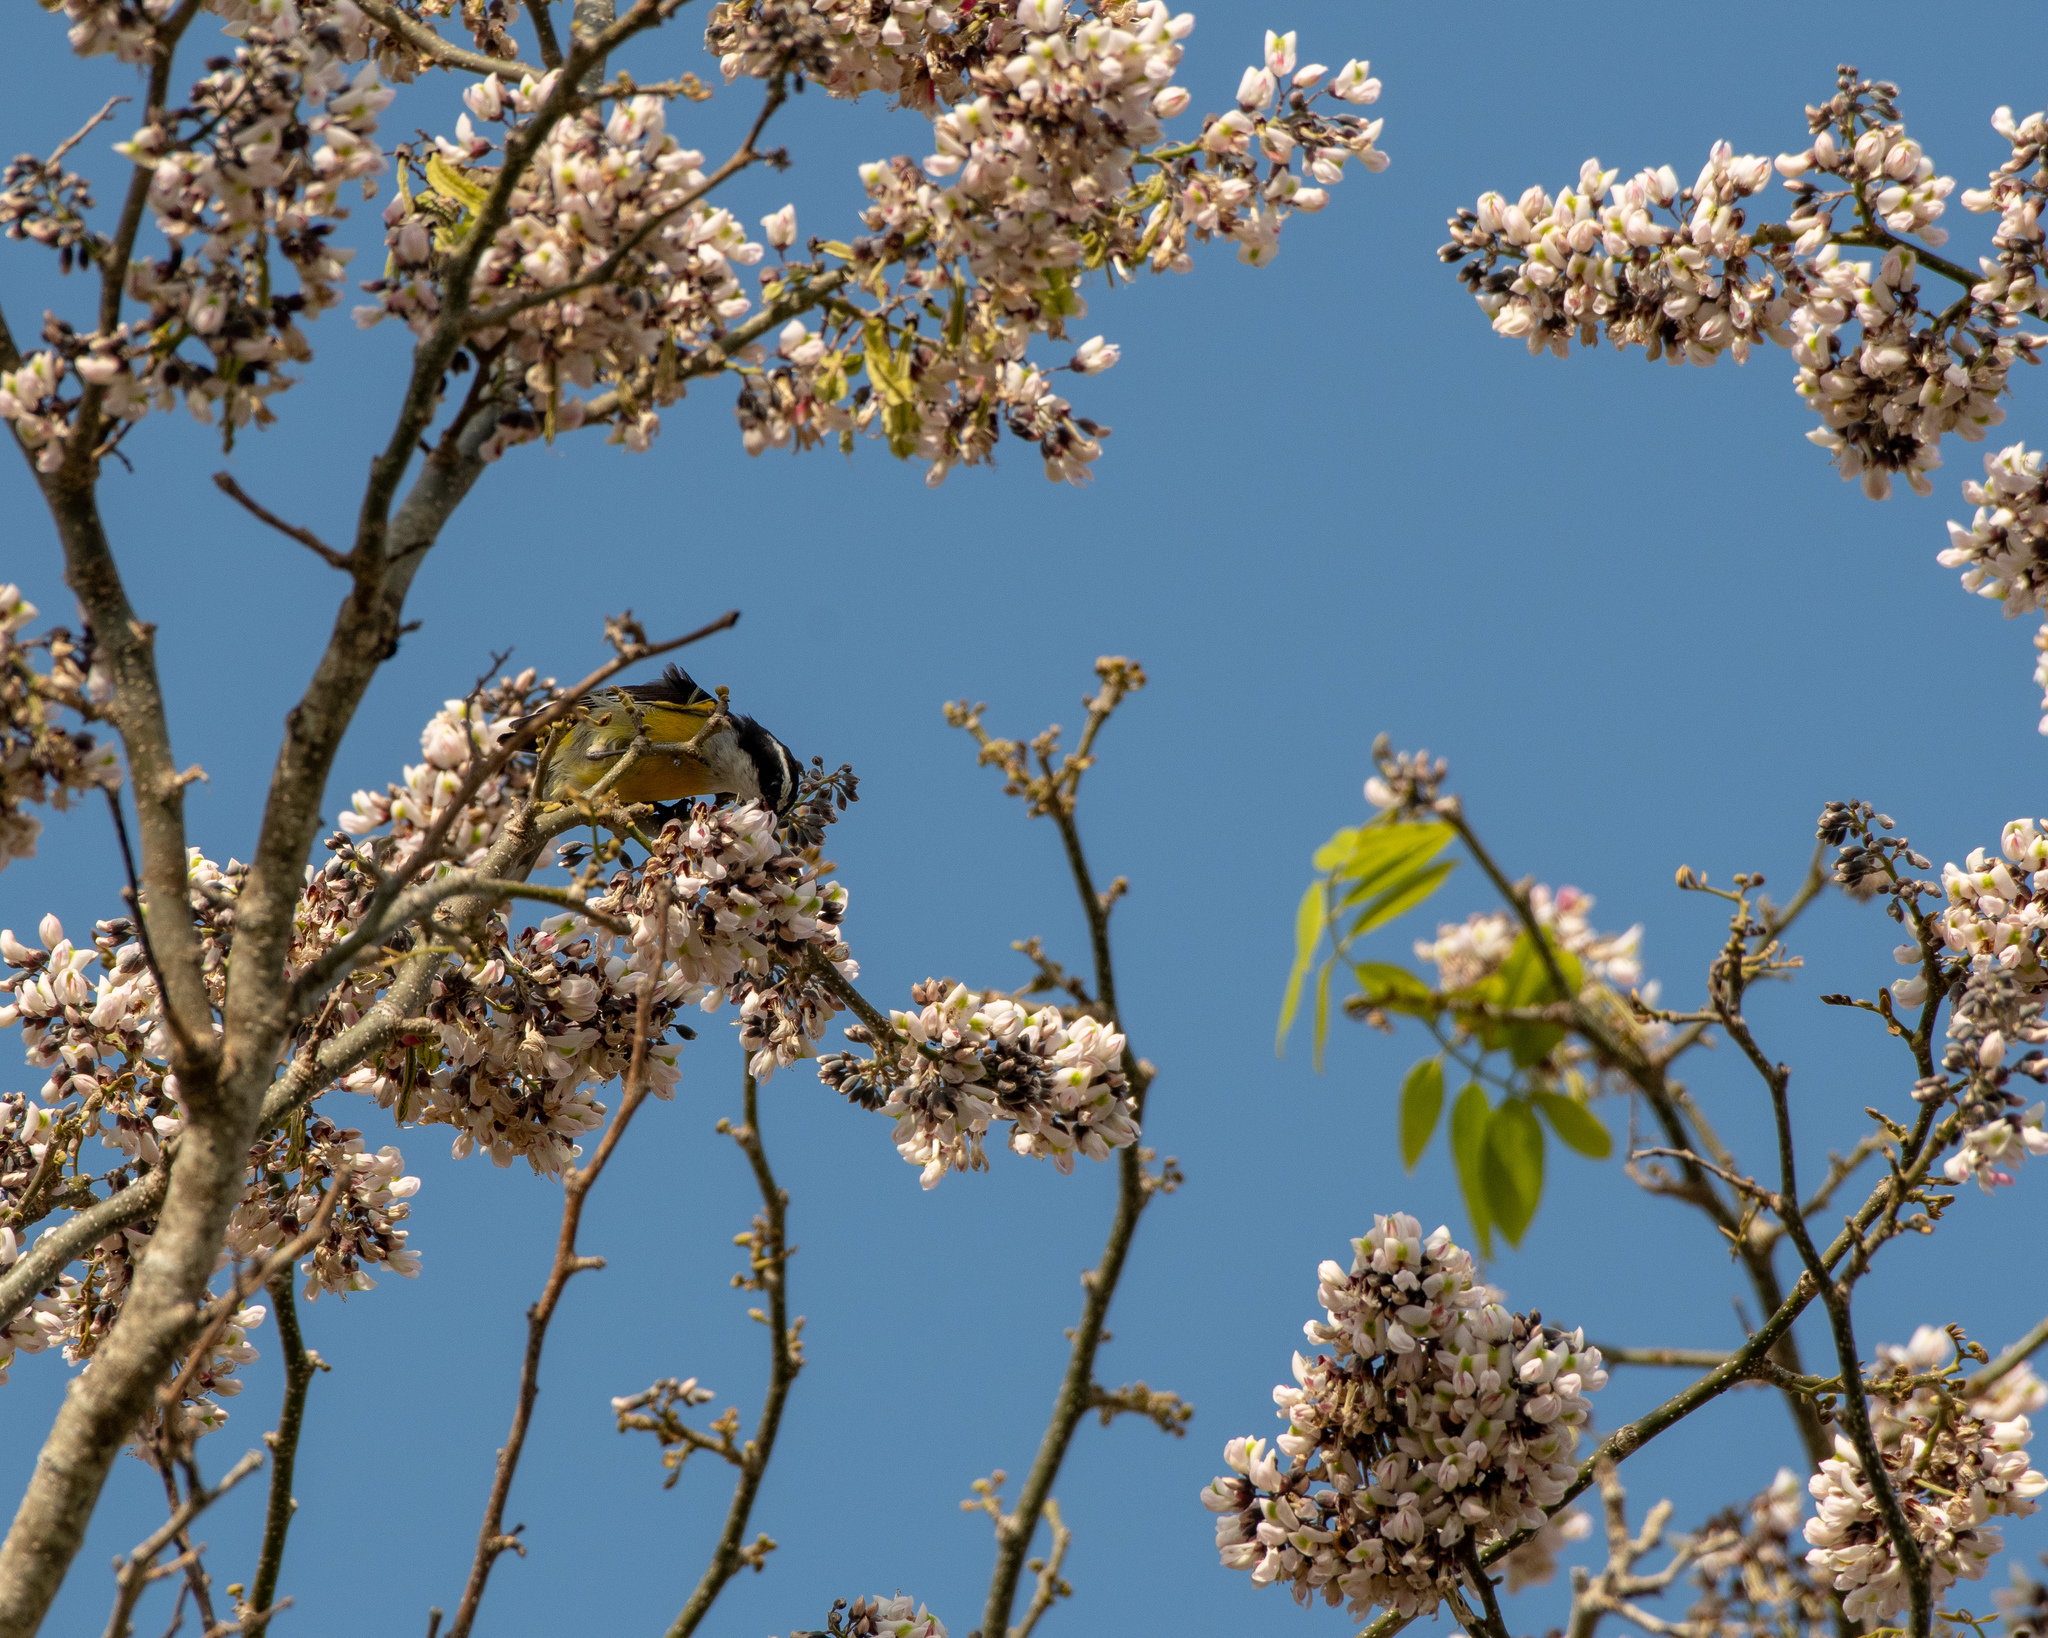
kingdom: Animalia
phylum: Chordata
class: Aves
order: Passeriformes
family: Thraupidae
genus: Coereba
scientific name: Coereba flaveola
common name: Bananaquit
